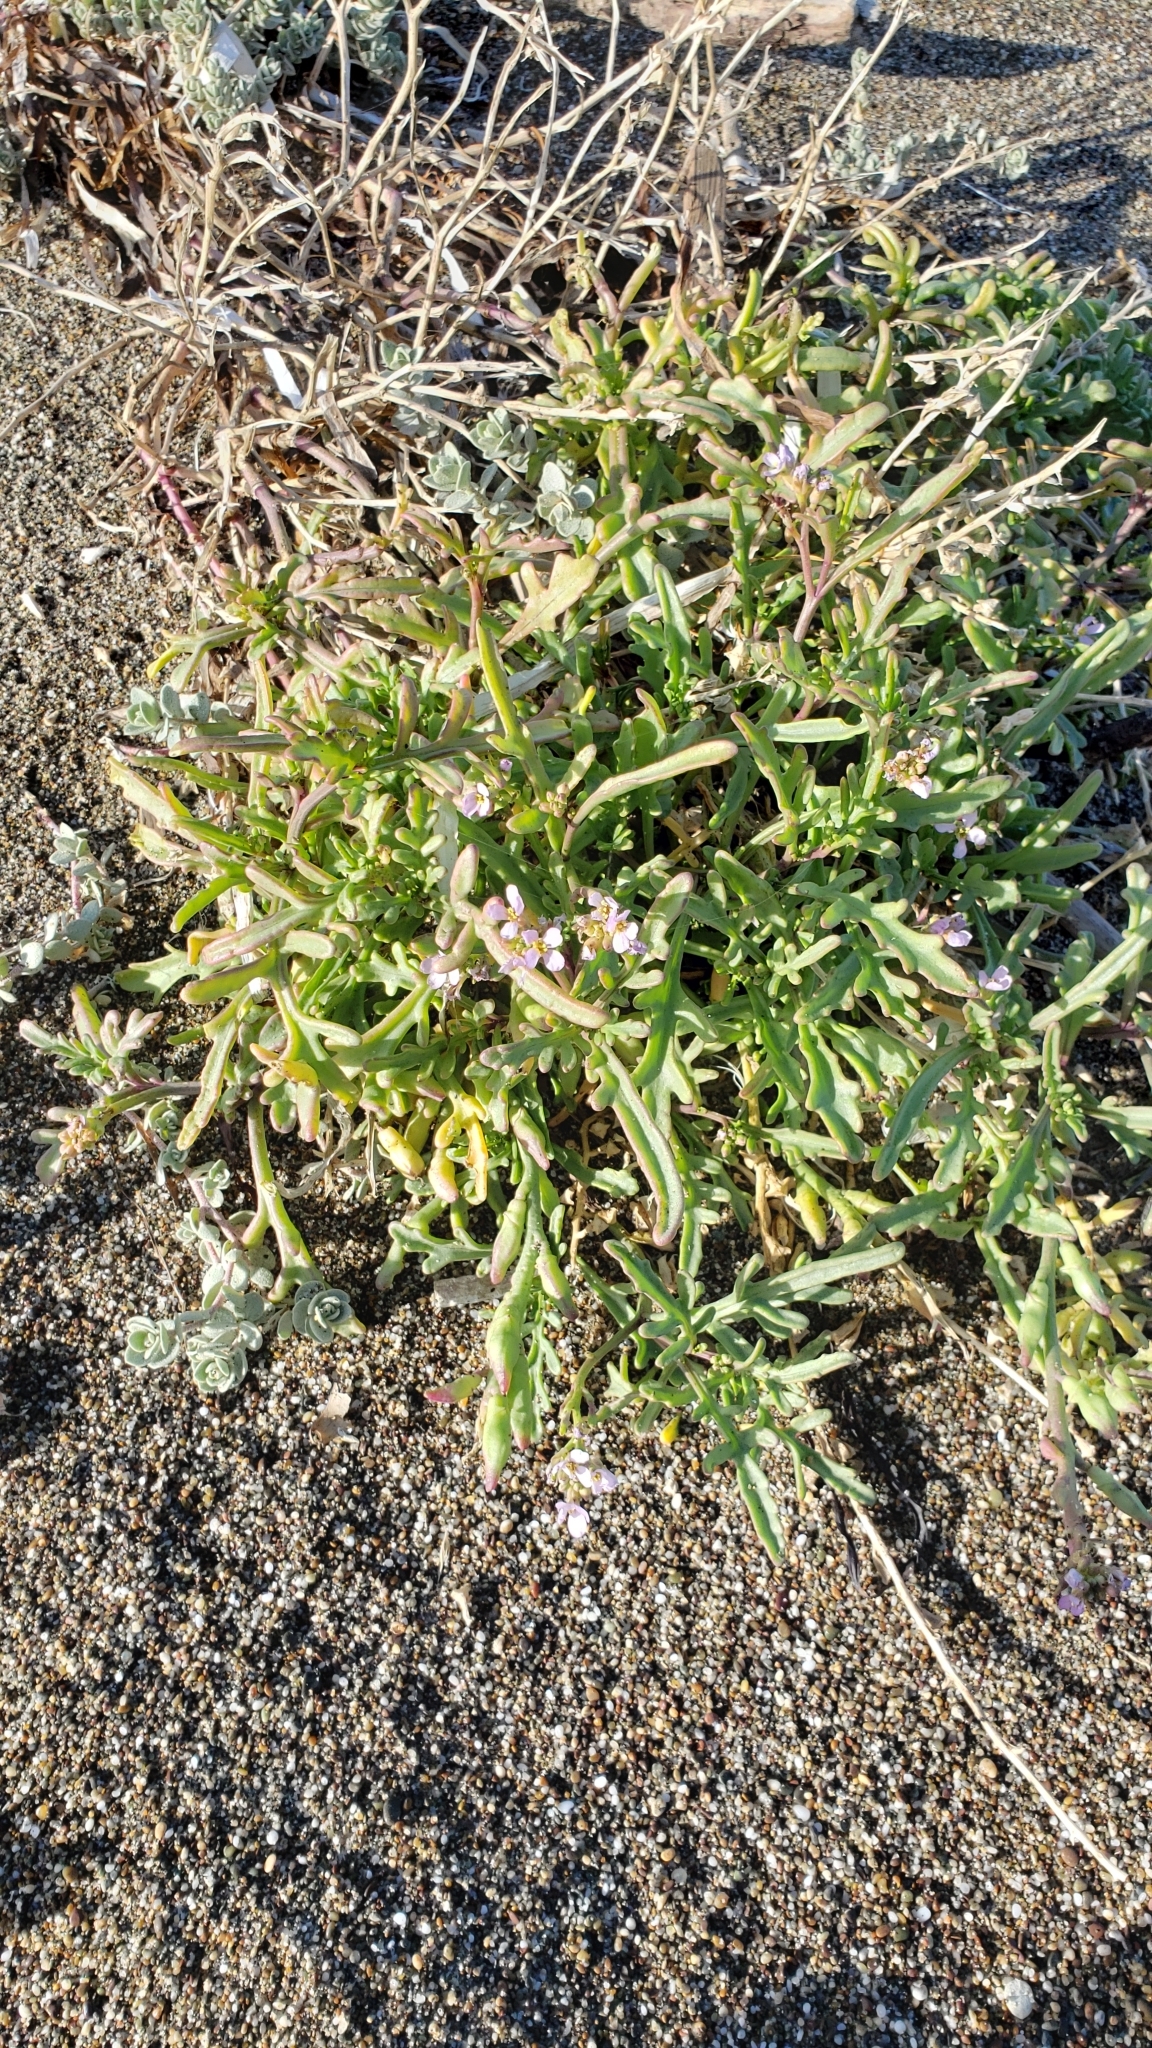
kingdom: Plantae
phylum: Tracheophyta
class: Magnoliopsida
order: Brassicales
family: Brassicaceae
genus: Cakile
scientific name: Cakile maritima
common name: Sea rocket
